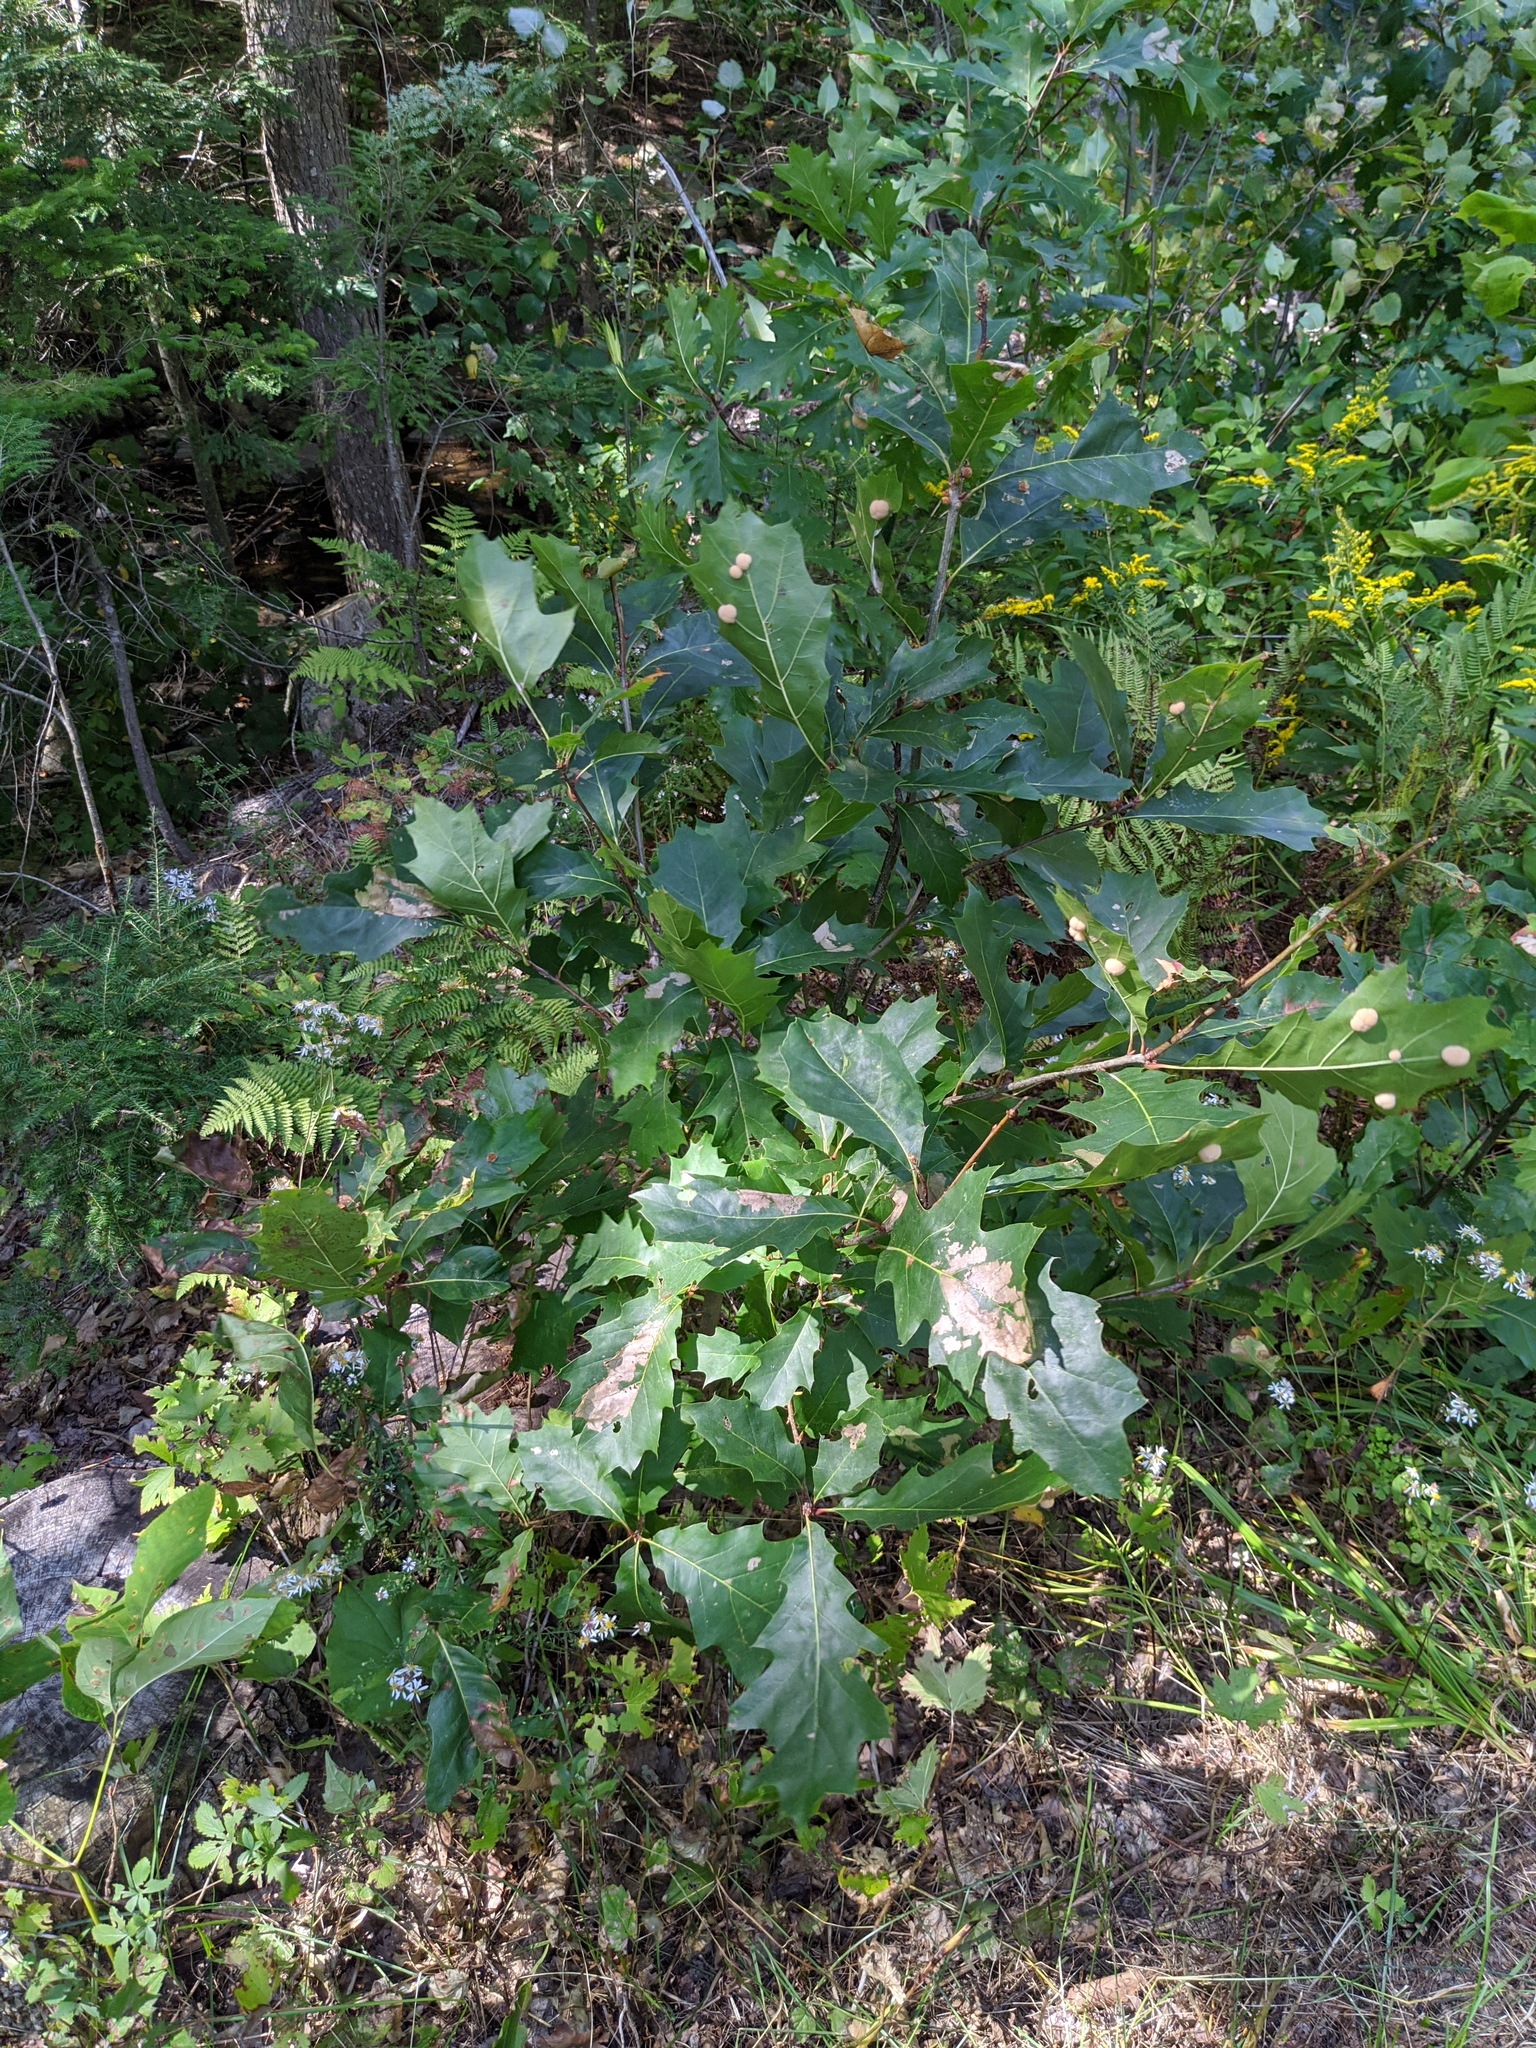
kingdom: Plantae
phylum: Tracheophyta
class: Magnoliopsida
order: Fagales
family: Fagaceae
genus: Quercus
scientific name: Quercus rubra
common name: Red oak
